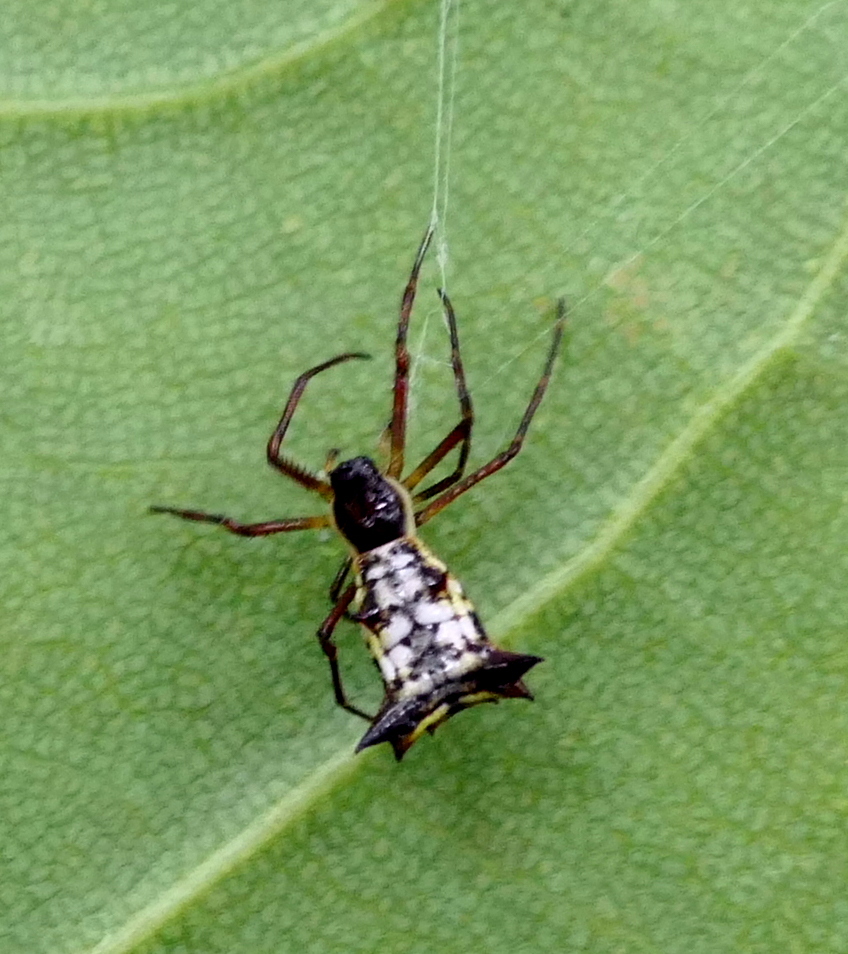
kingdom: Animalia
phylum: Arthropoda
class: Arachnida
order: Araneae
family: Araneidae
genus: Micrathena
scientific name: Micrathena fissispina
